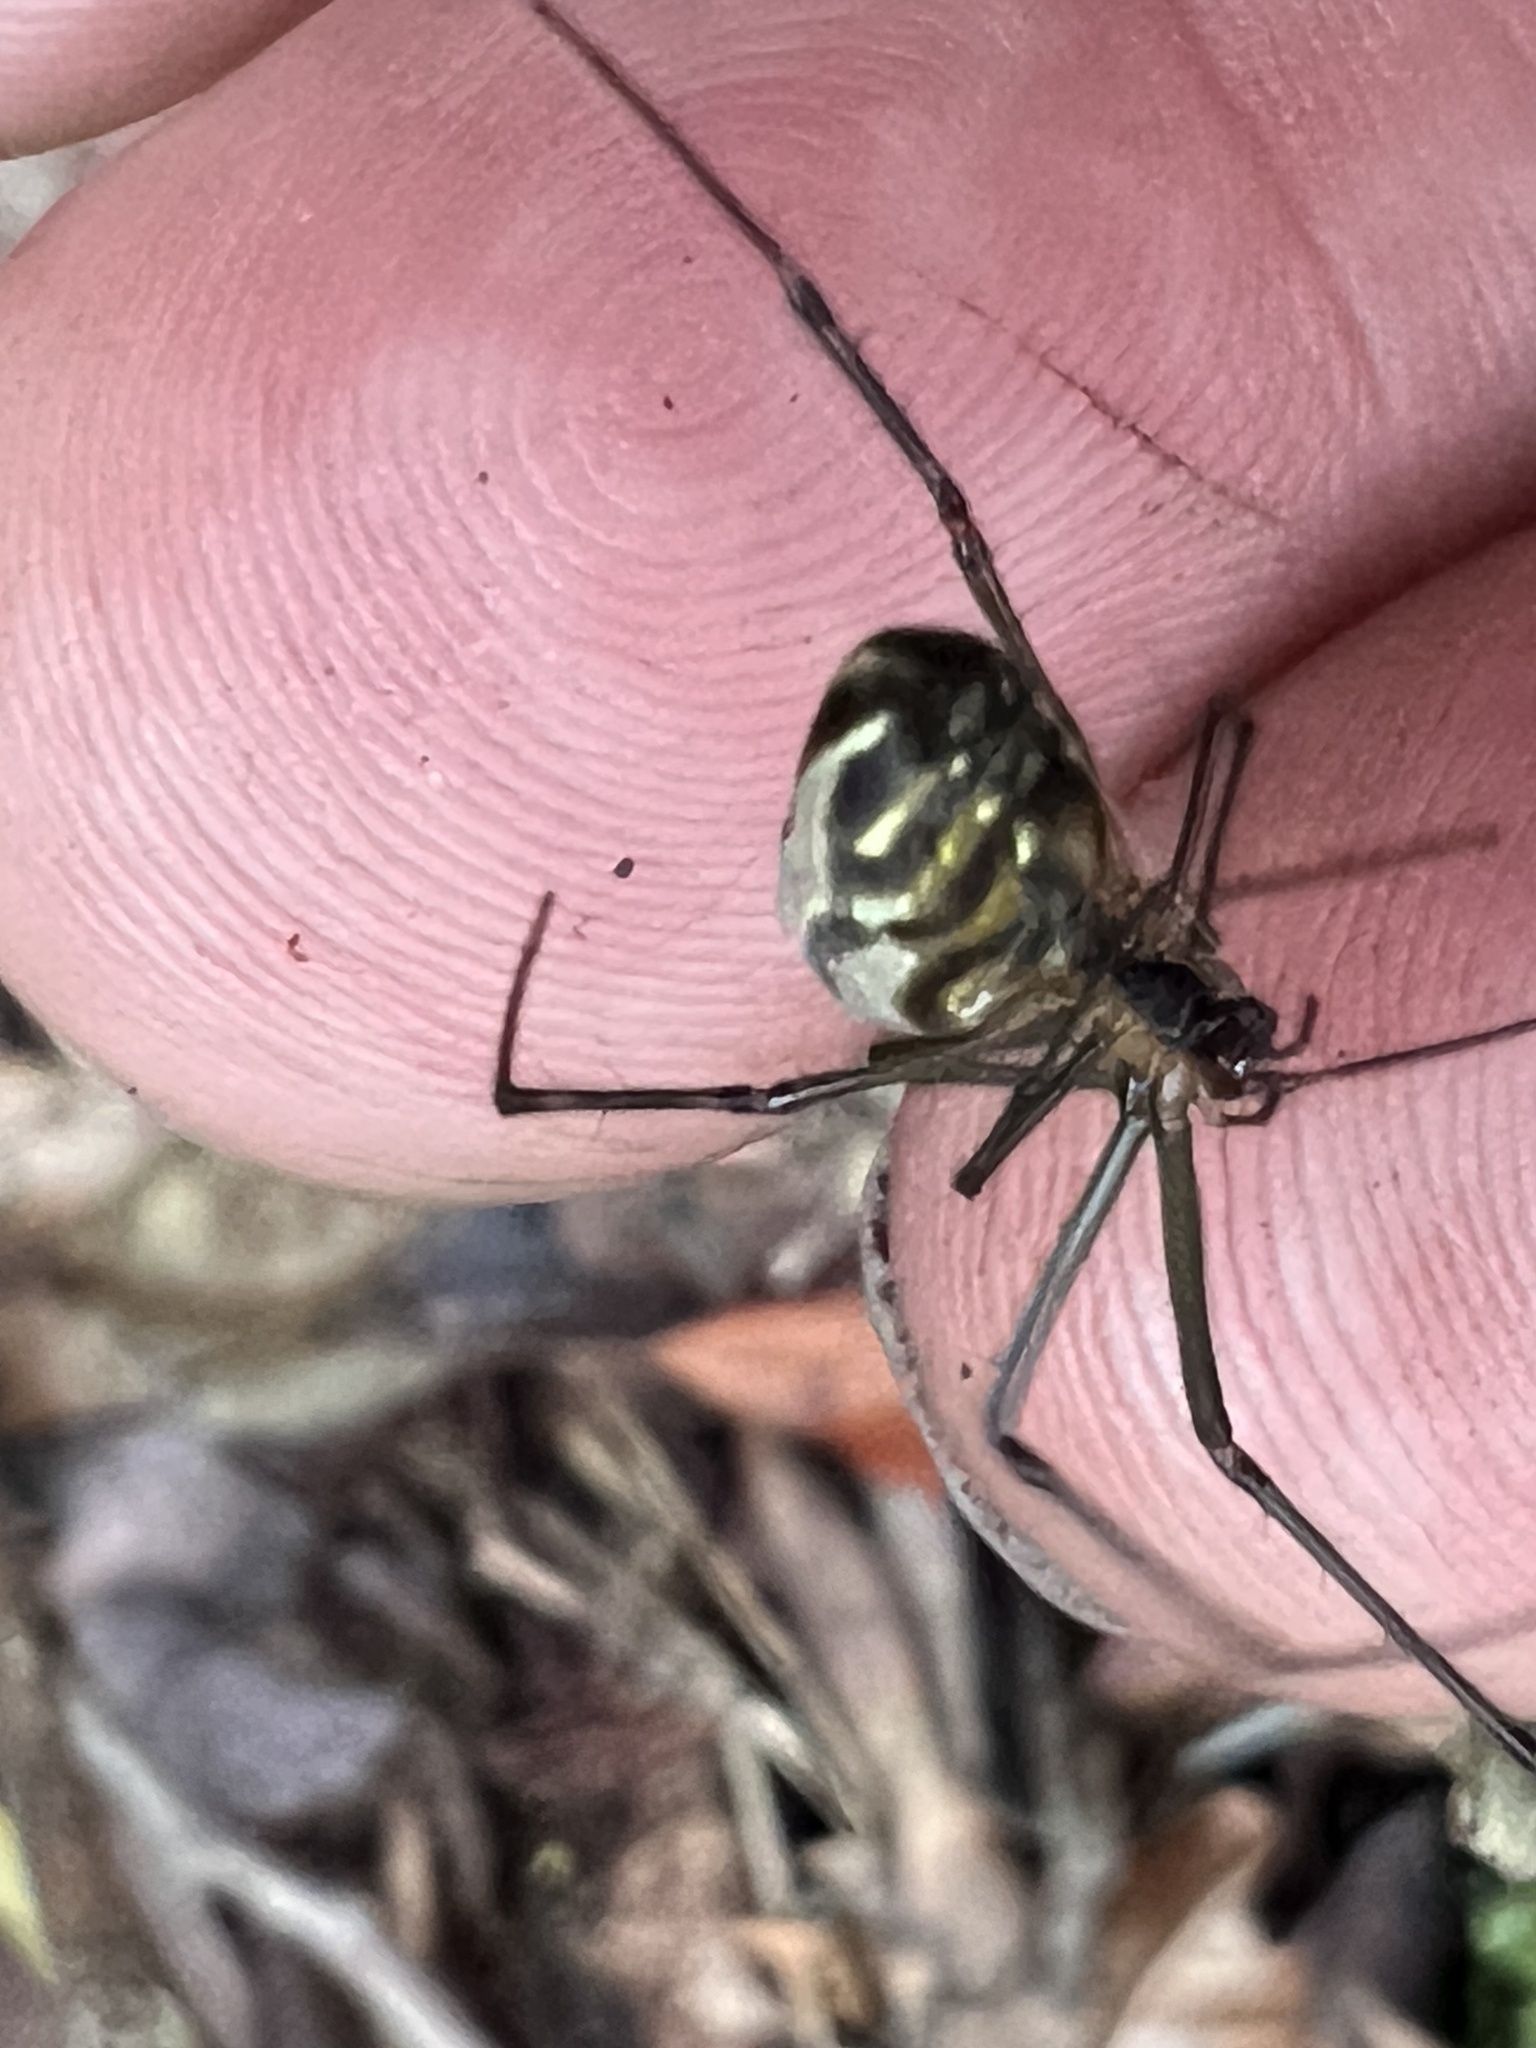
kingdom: Animalia
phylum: Arthropoda
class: Arachnida
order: Araneae
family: Tetragnathidae
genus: Leucauge
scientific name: Leucauge dromedaria
